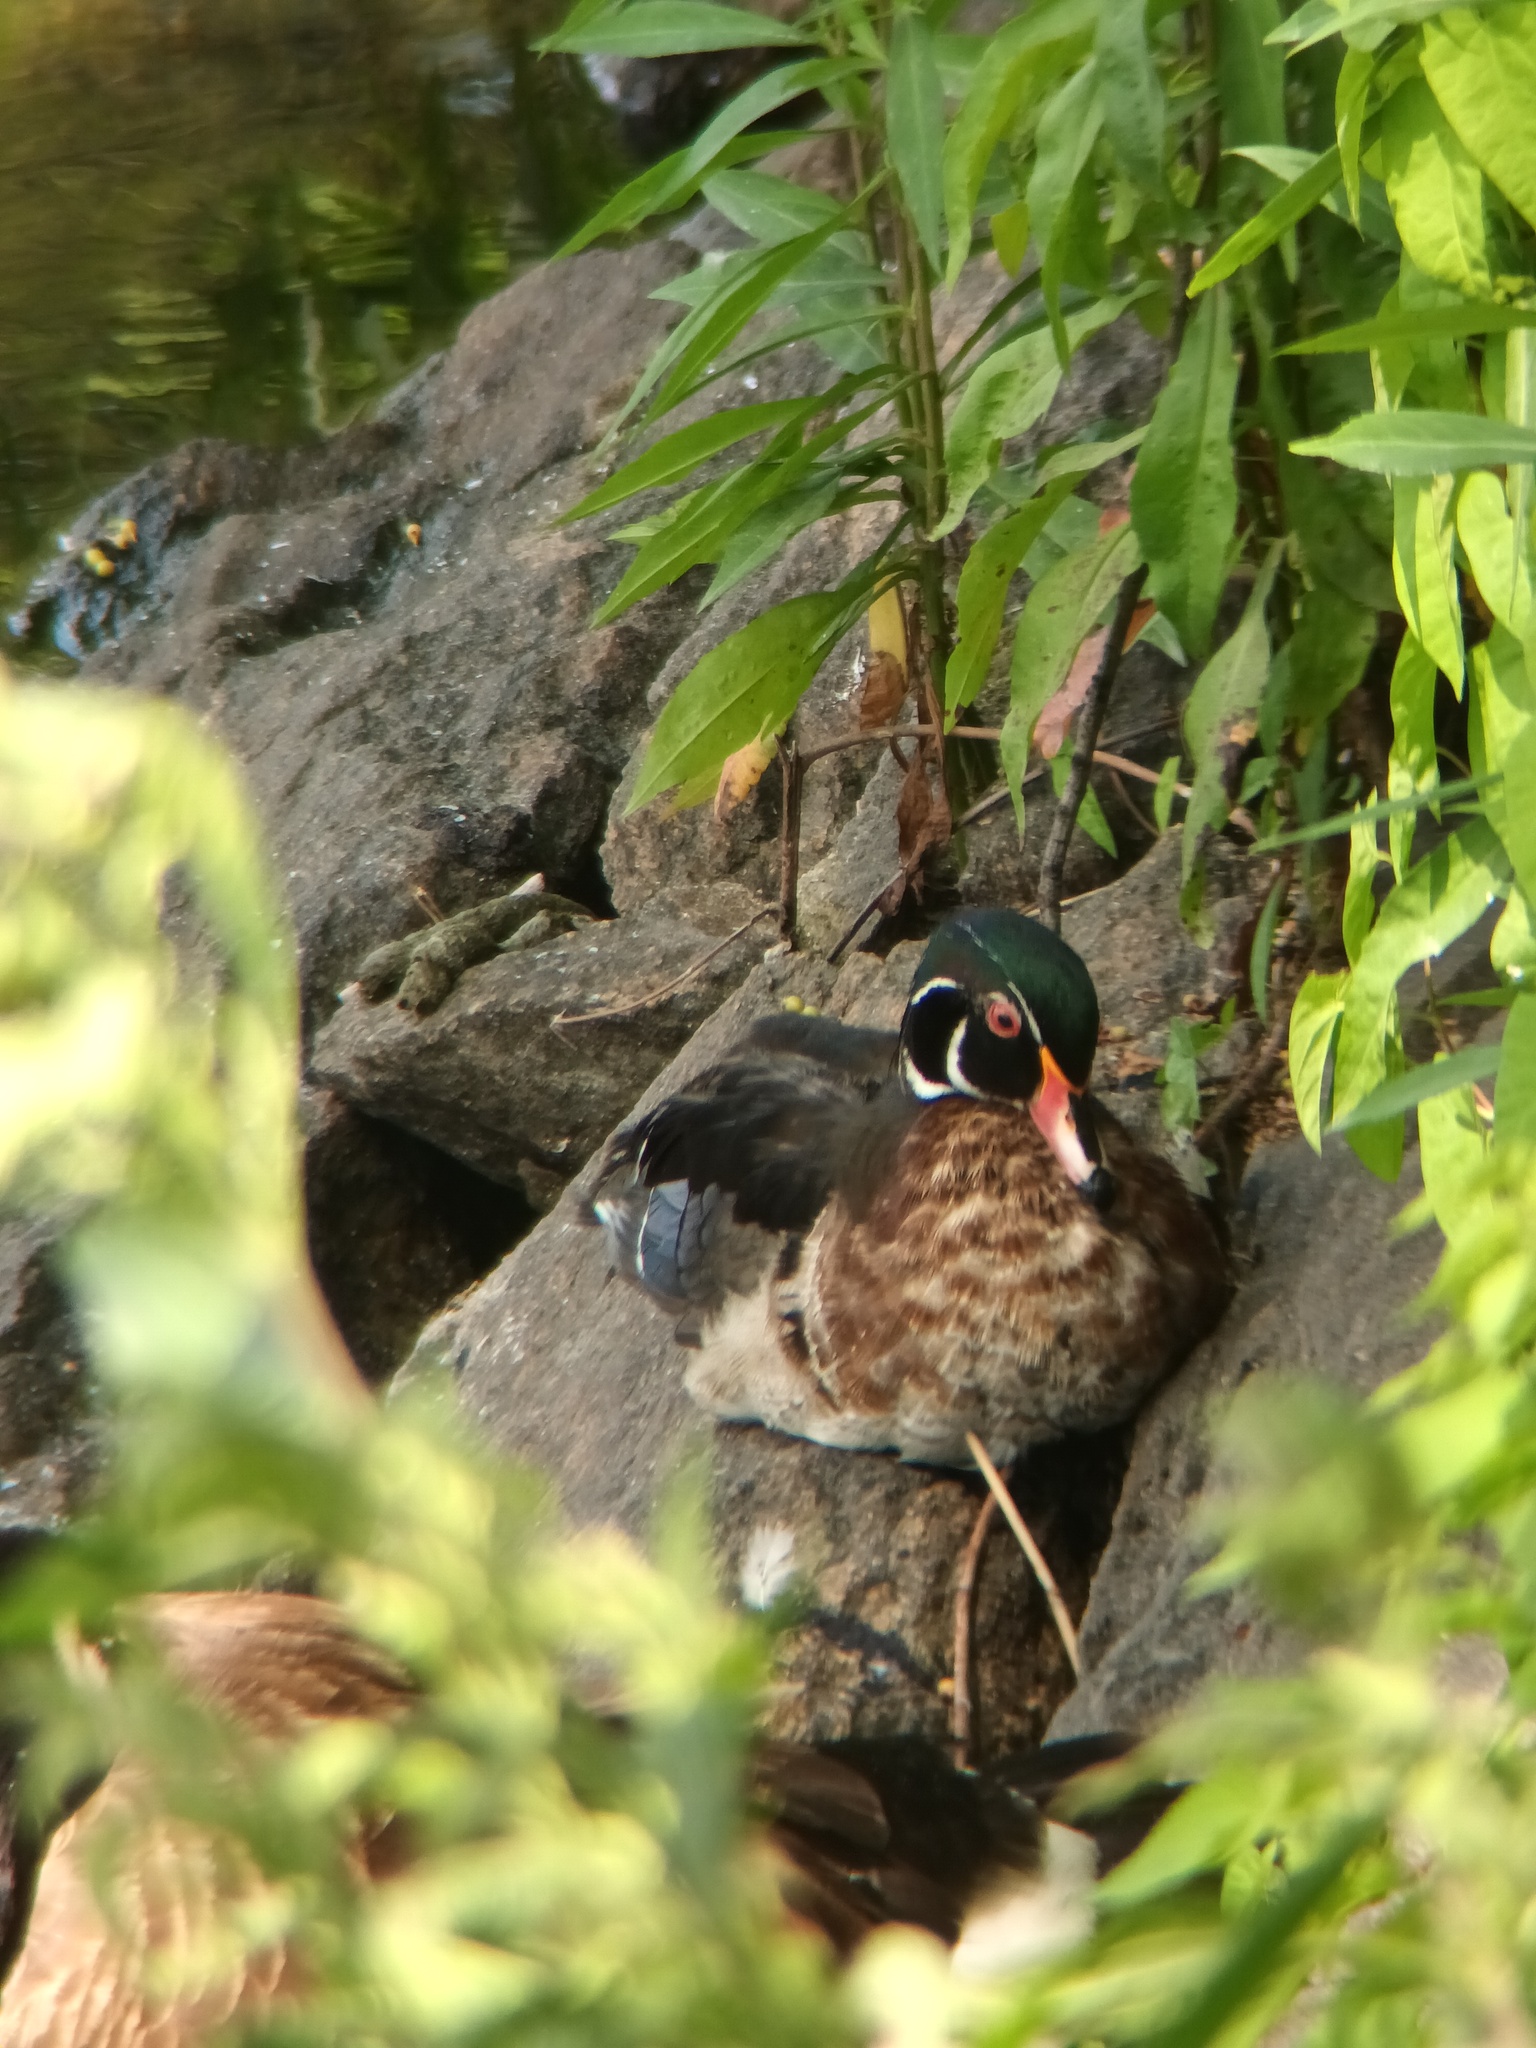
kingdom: Animalia
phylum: Chordata
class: Aves
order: Anseriformes
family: Anatidae
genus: Aix
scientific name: Aix sponsa
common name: Wood duck
